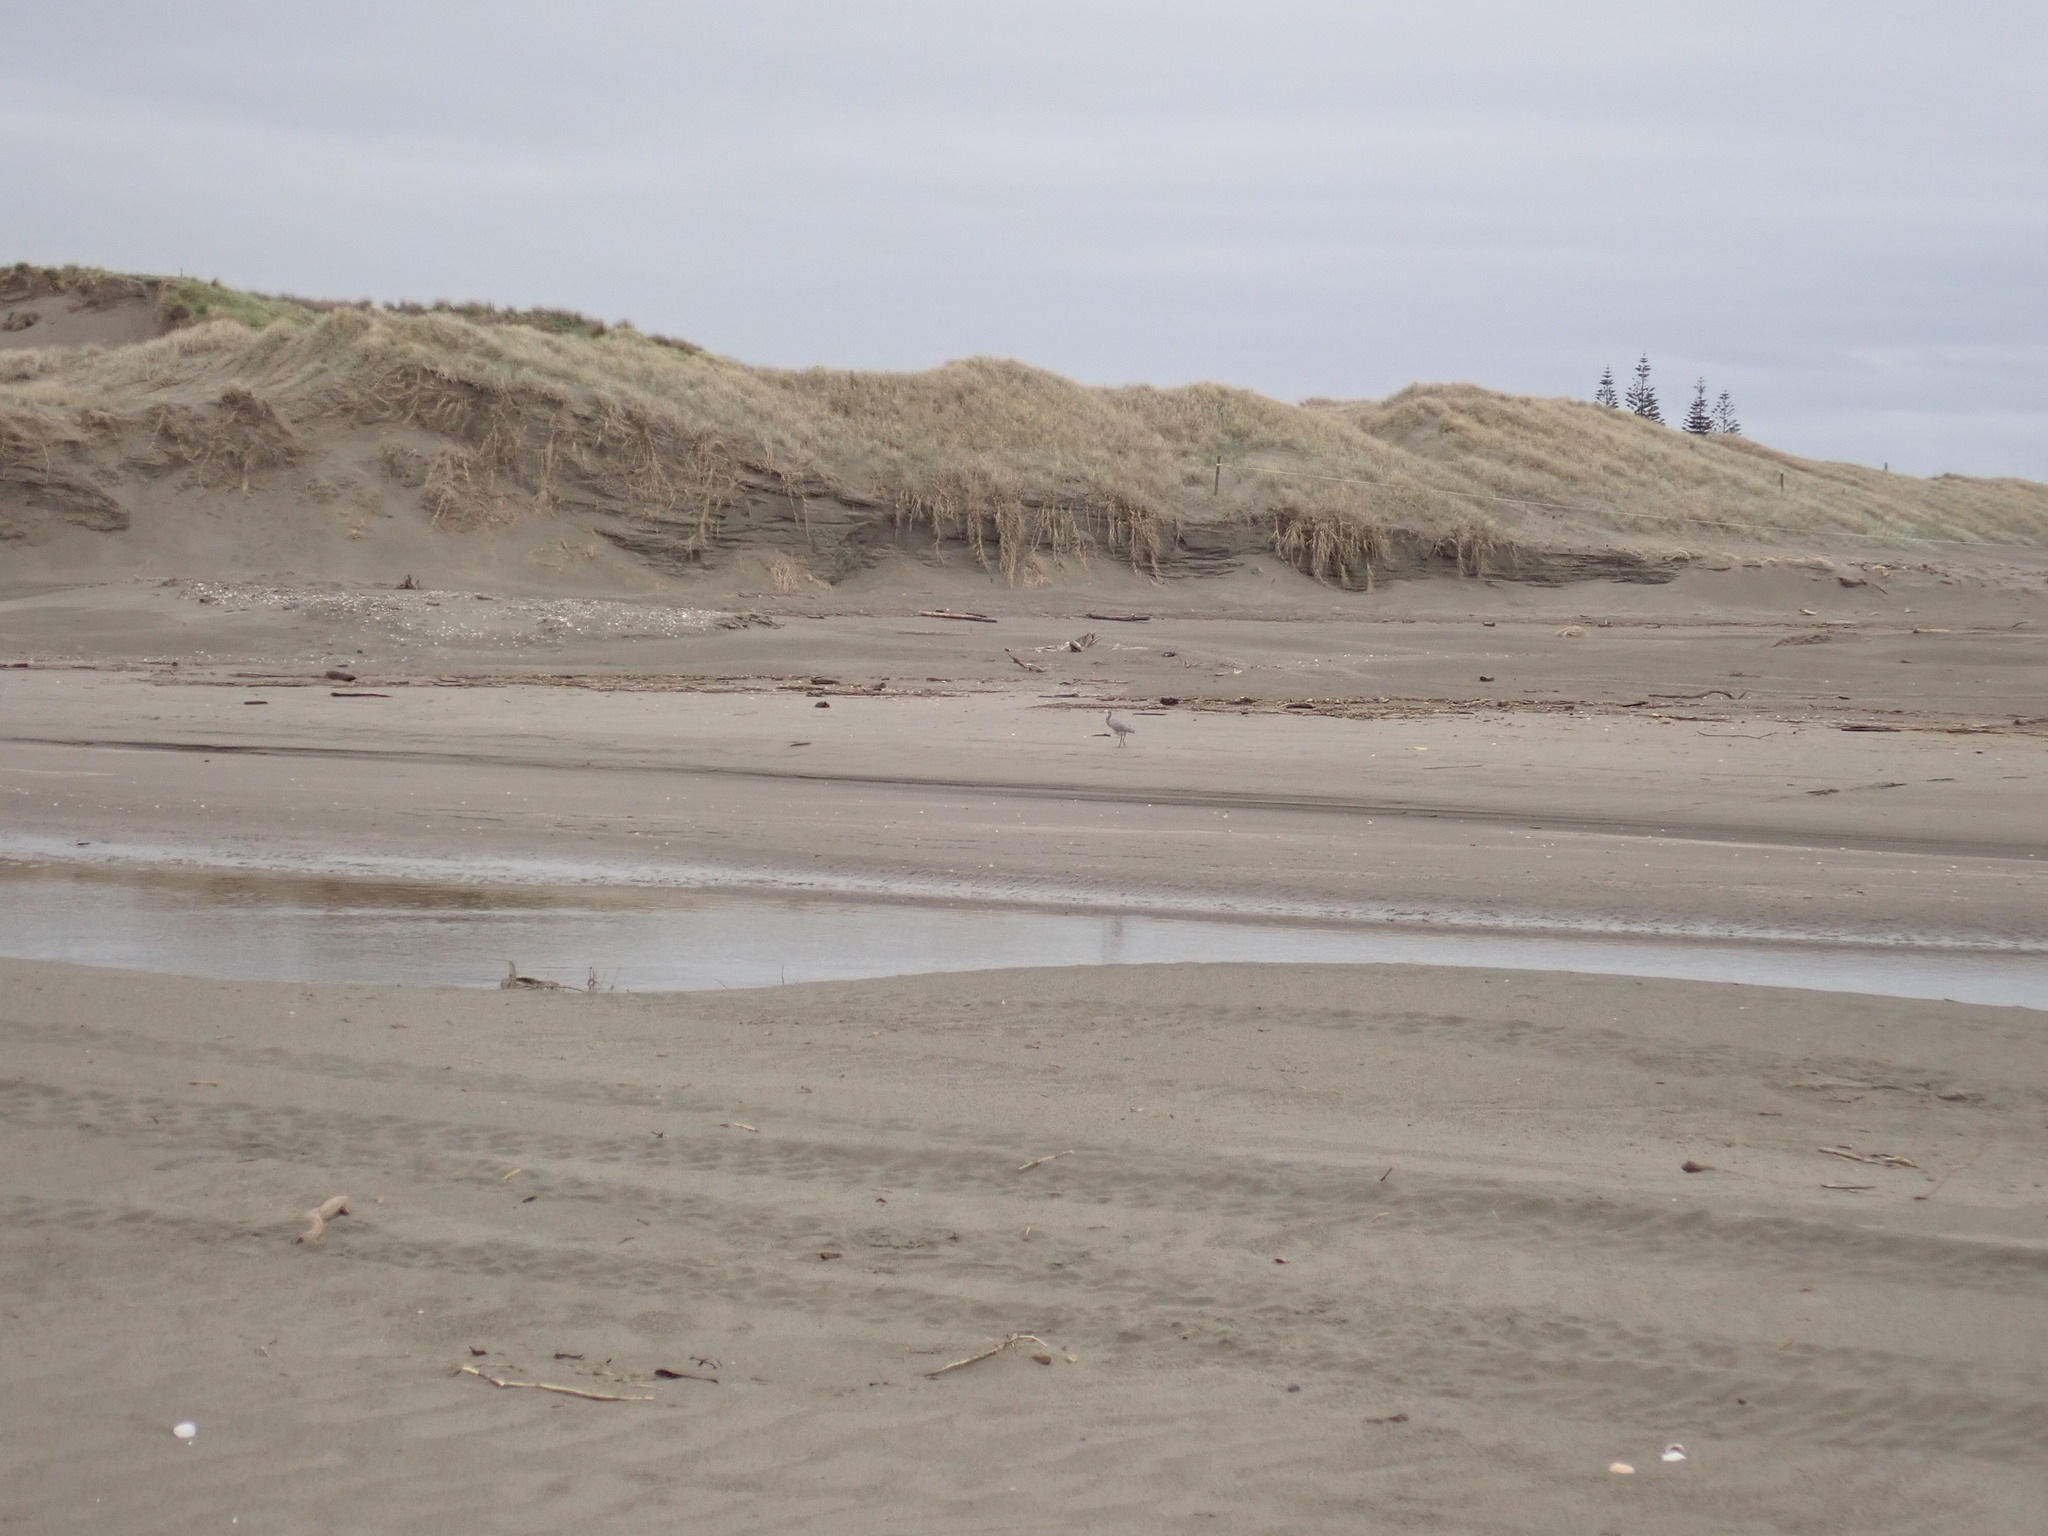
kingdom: Animalia
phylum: Chordata
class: Aves
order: Pelecaniformes
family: Ardeidae
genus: Egretta
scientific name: Egretta novaehollandiae
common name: White-faced heron
